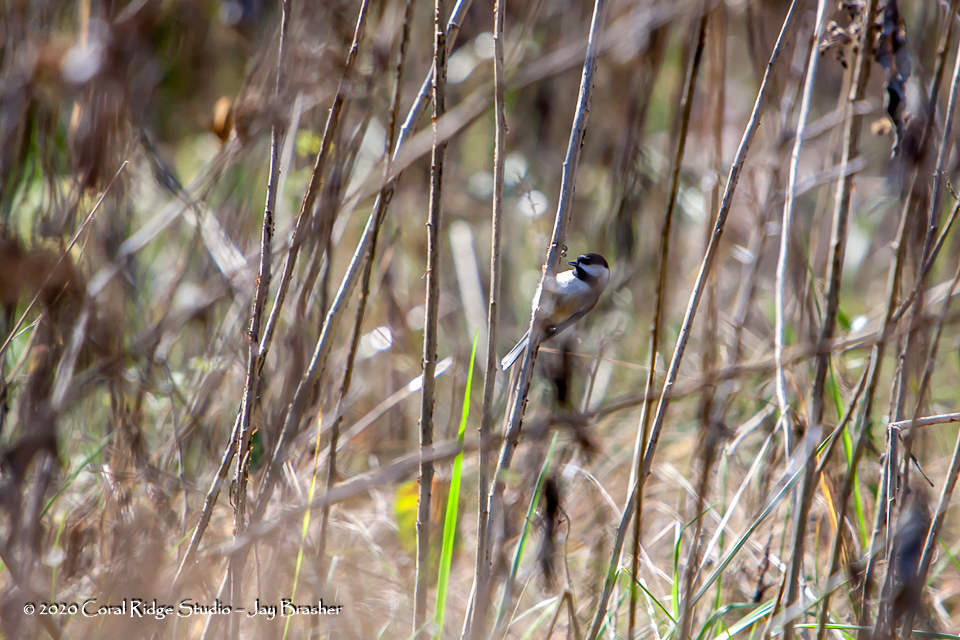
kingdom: Animalia
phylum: Chordata
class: Aves
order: Passeriformes
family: Paridae
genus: Poecile
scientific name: Poecile carolinensis
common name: Carolina chickadee
